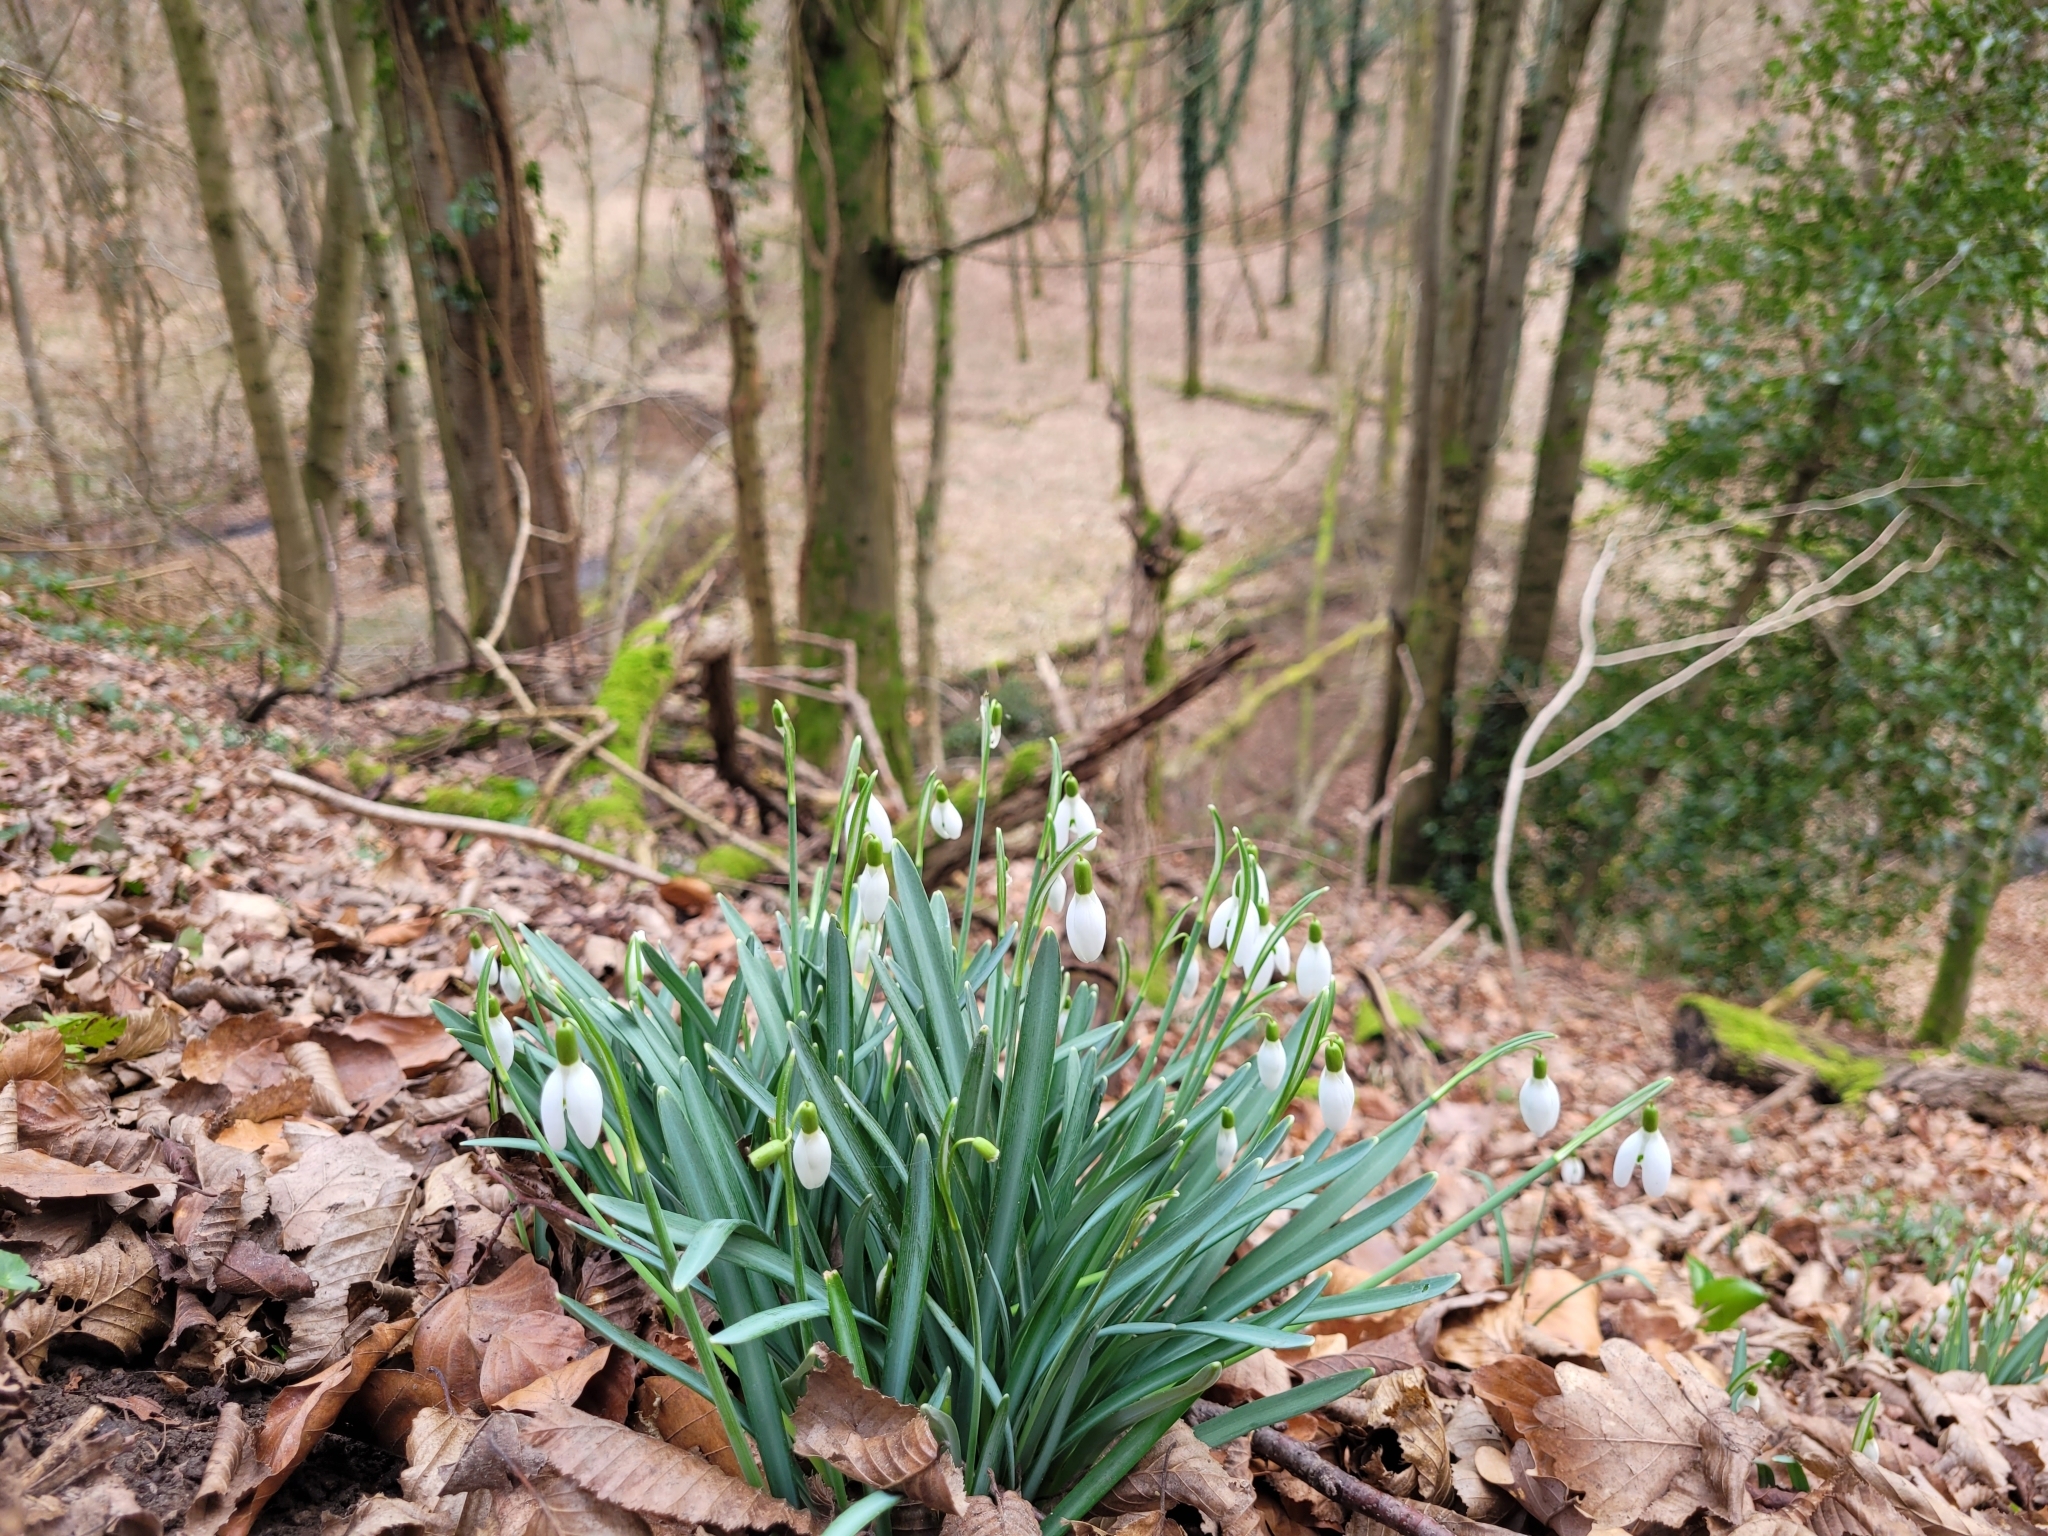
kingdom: Plantae
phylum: Tracheophyta
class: Liliopsida
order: Asparagales
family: Amaryllidaceae
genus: Galanthus
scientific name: Galanthus nivalis
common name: Snowdrop
